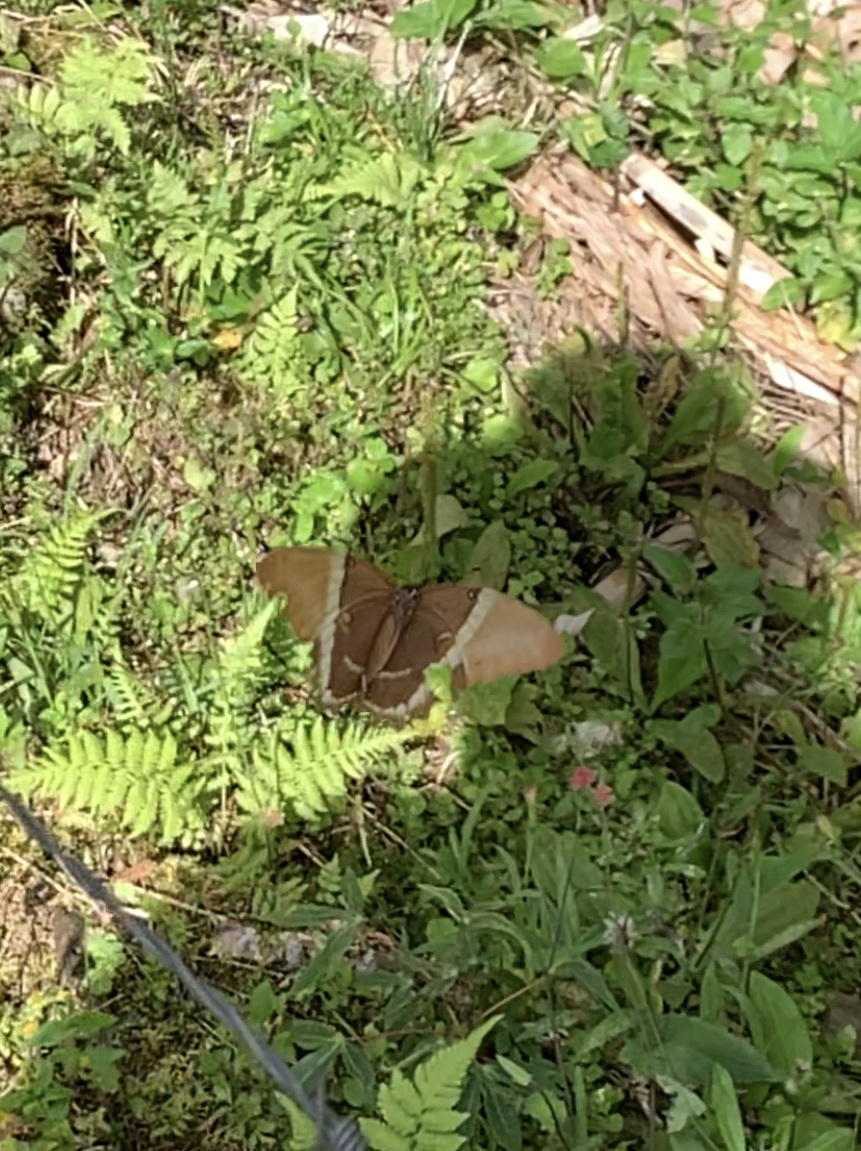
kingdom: Animalia
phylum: Arthropoda
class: Insecta
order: Lepidoptera
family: Nymphalidae
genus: Siproeta
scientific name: Siproeta epaphus
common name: Rusty-tipped page
